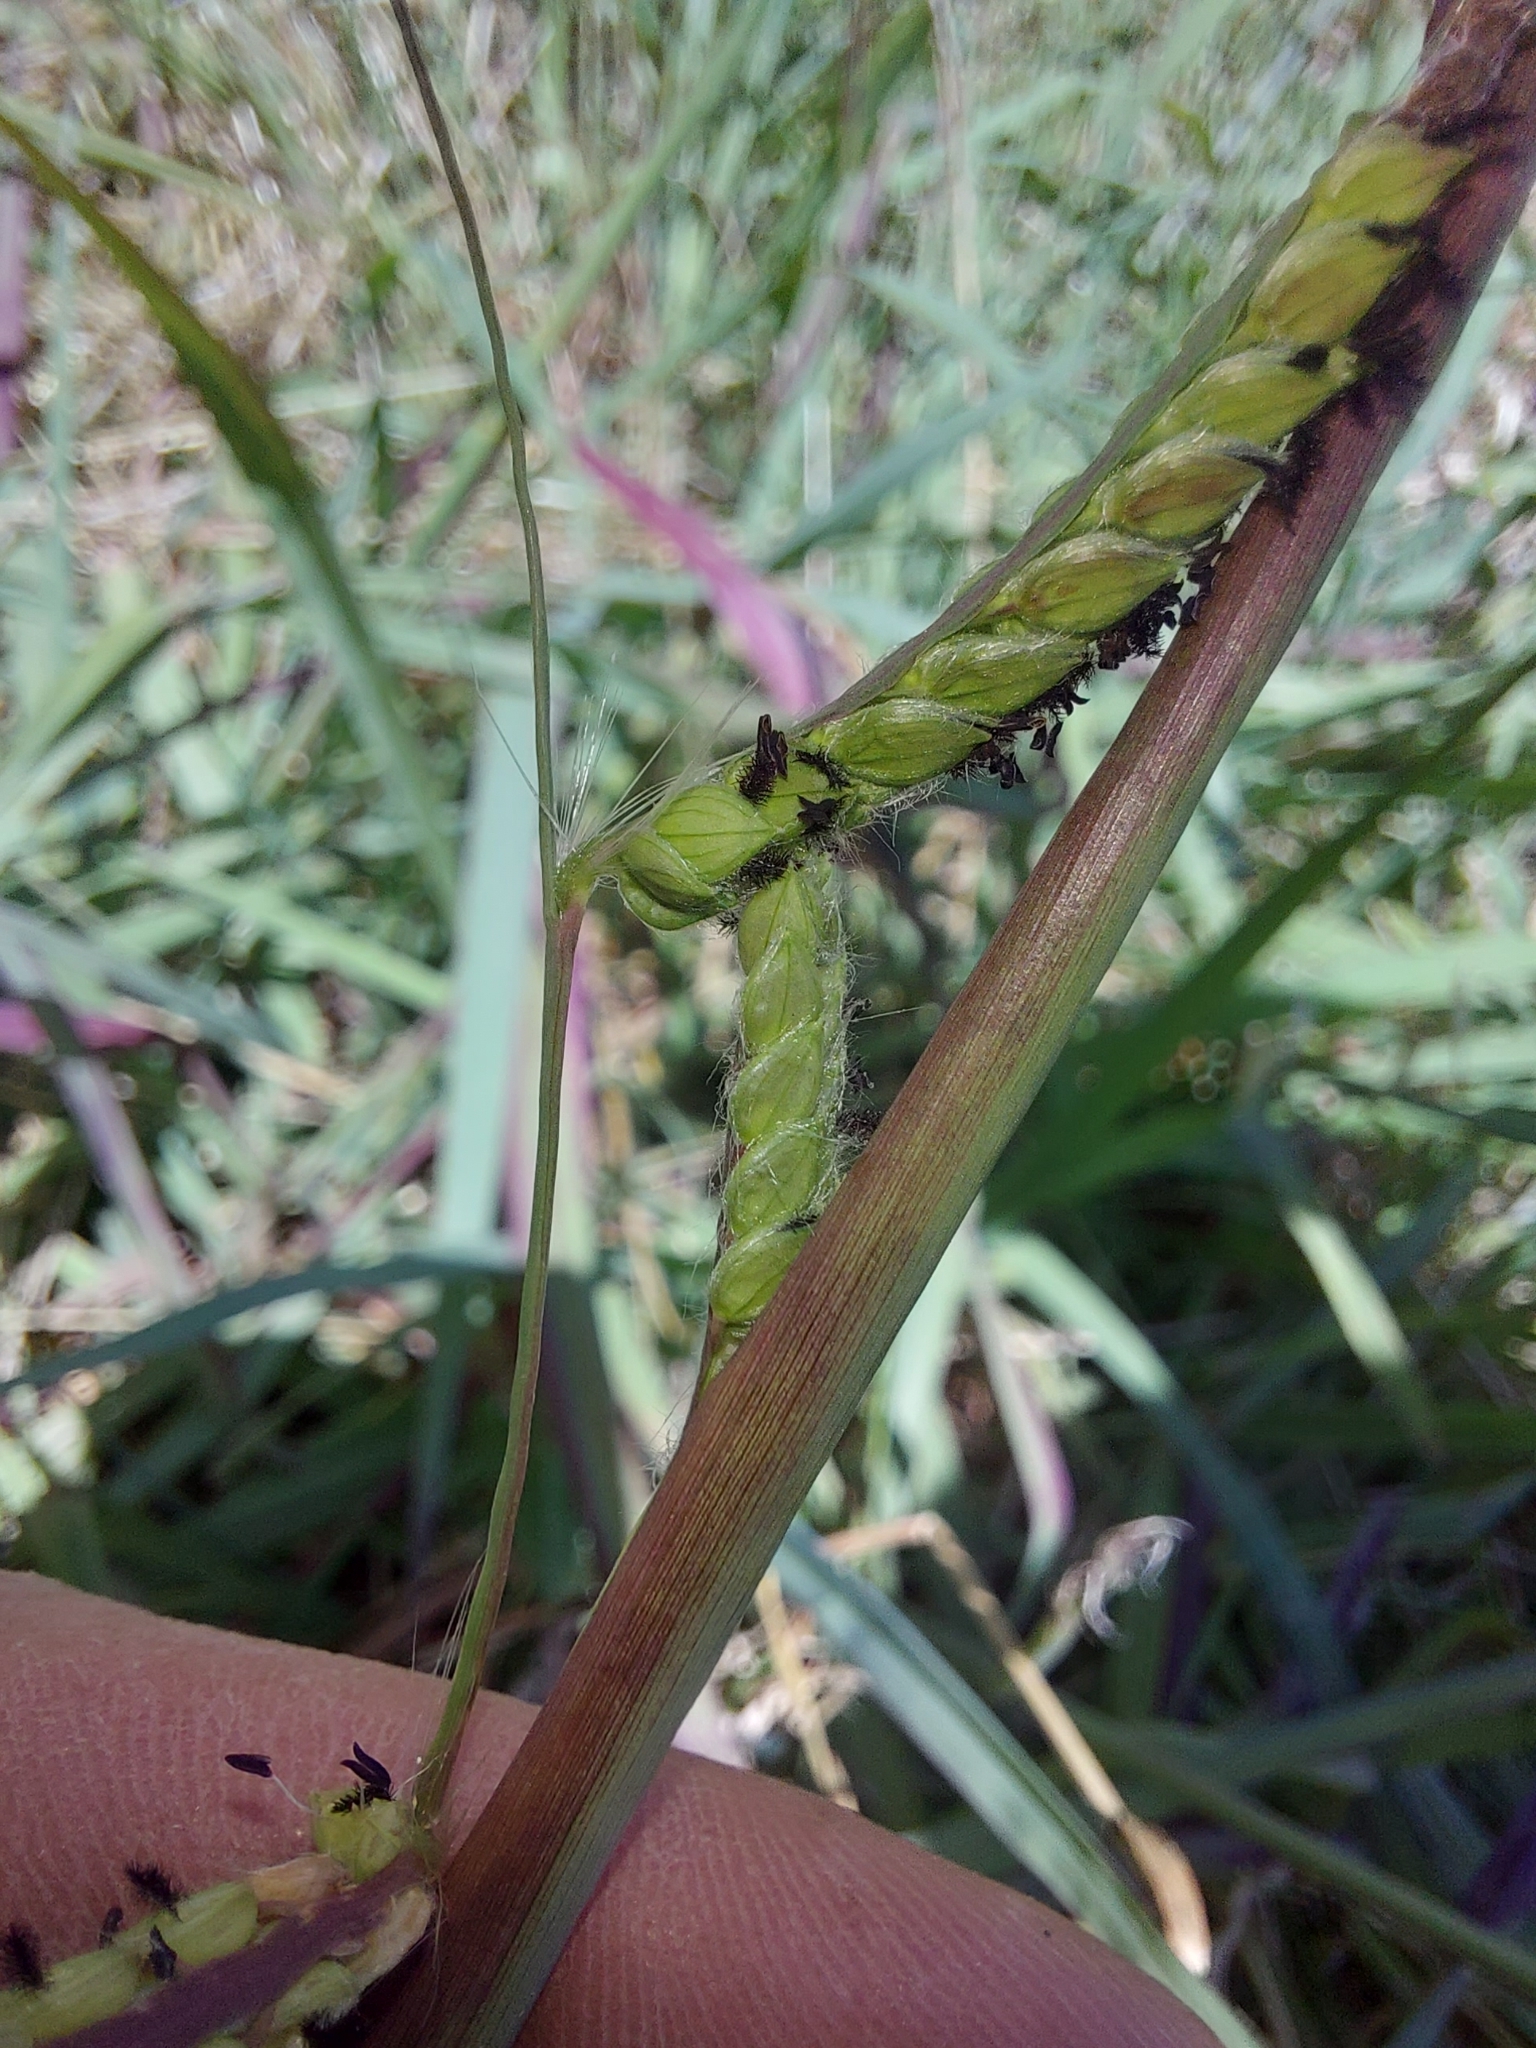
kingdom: Plantae
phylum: Tracheophyta
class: Liliopsida
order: Poales
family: Poaceae
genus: Paspalum
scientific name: Paspalum dilatatum
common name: Dallisgrass
